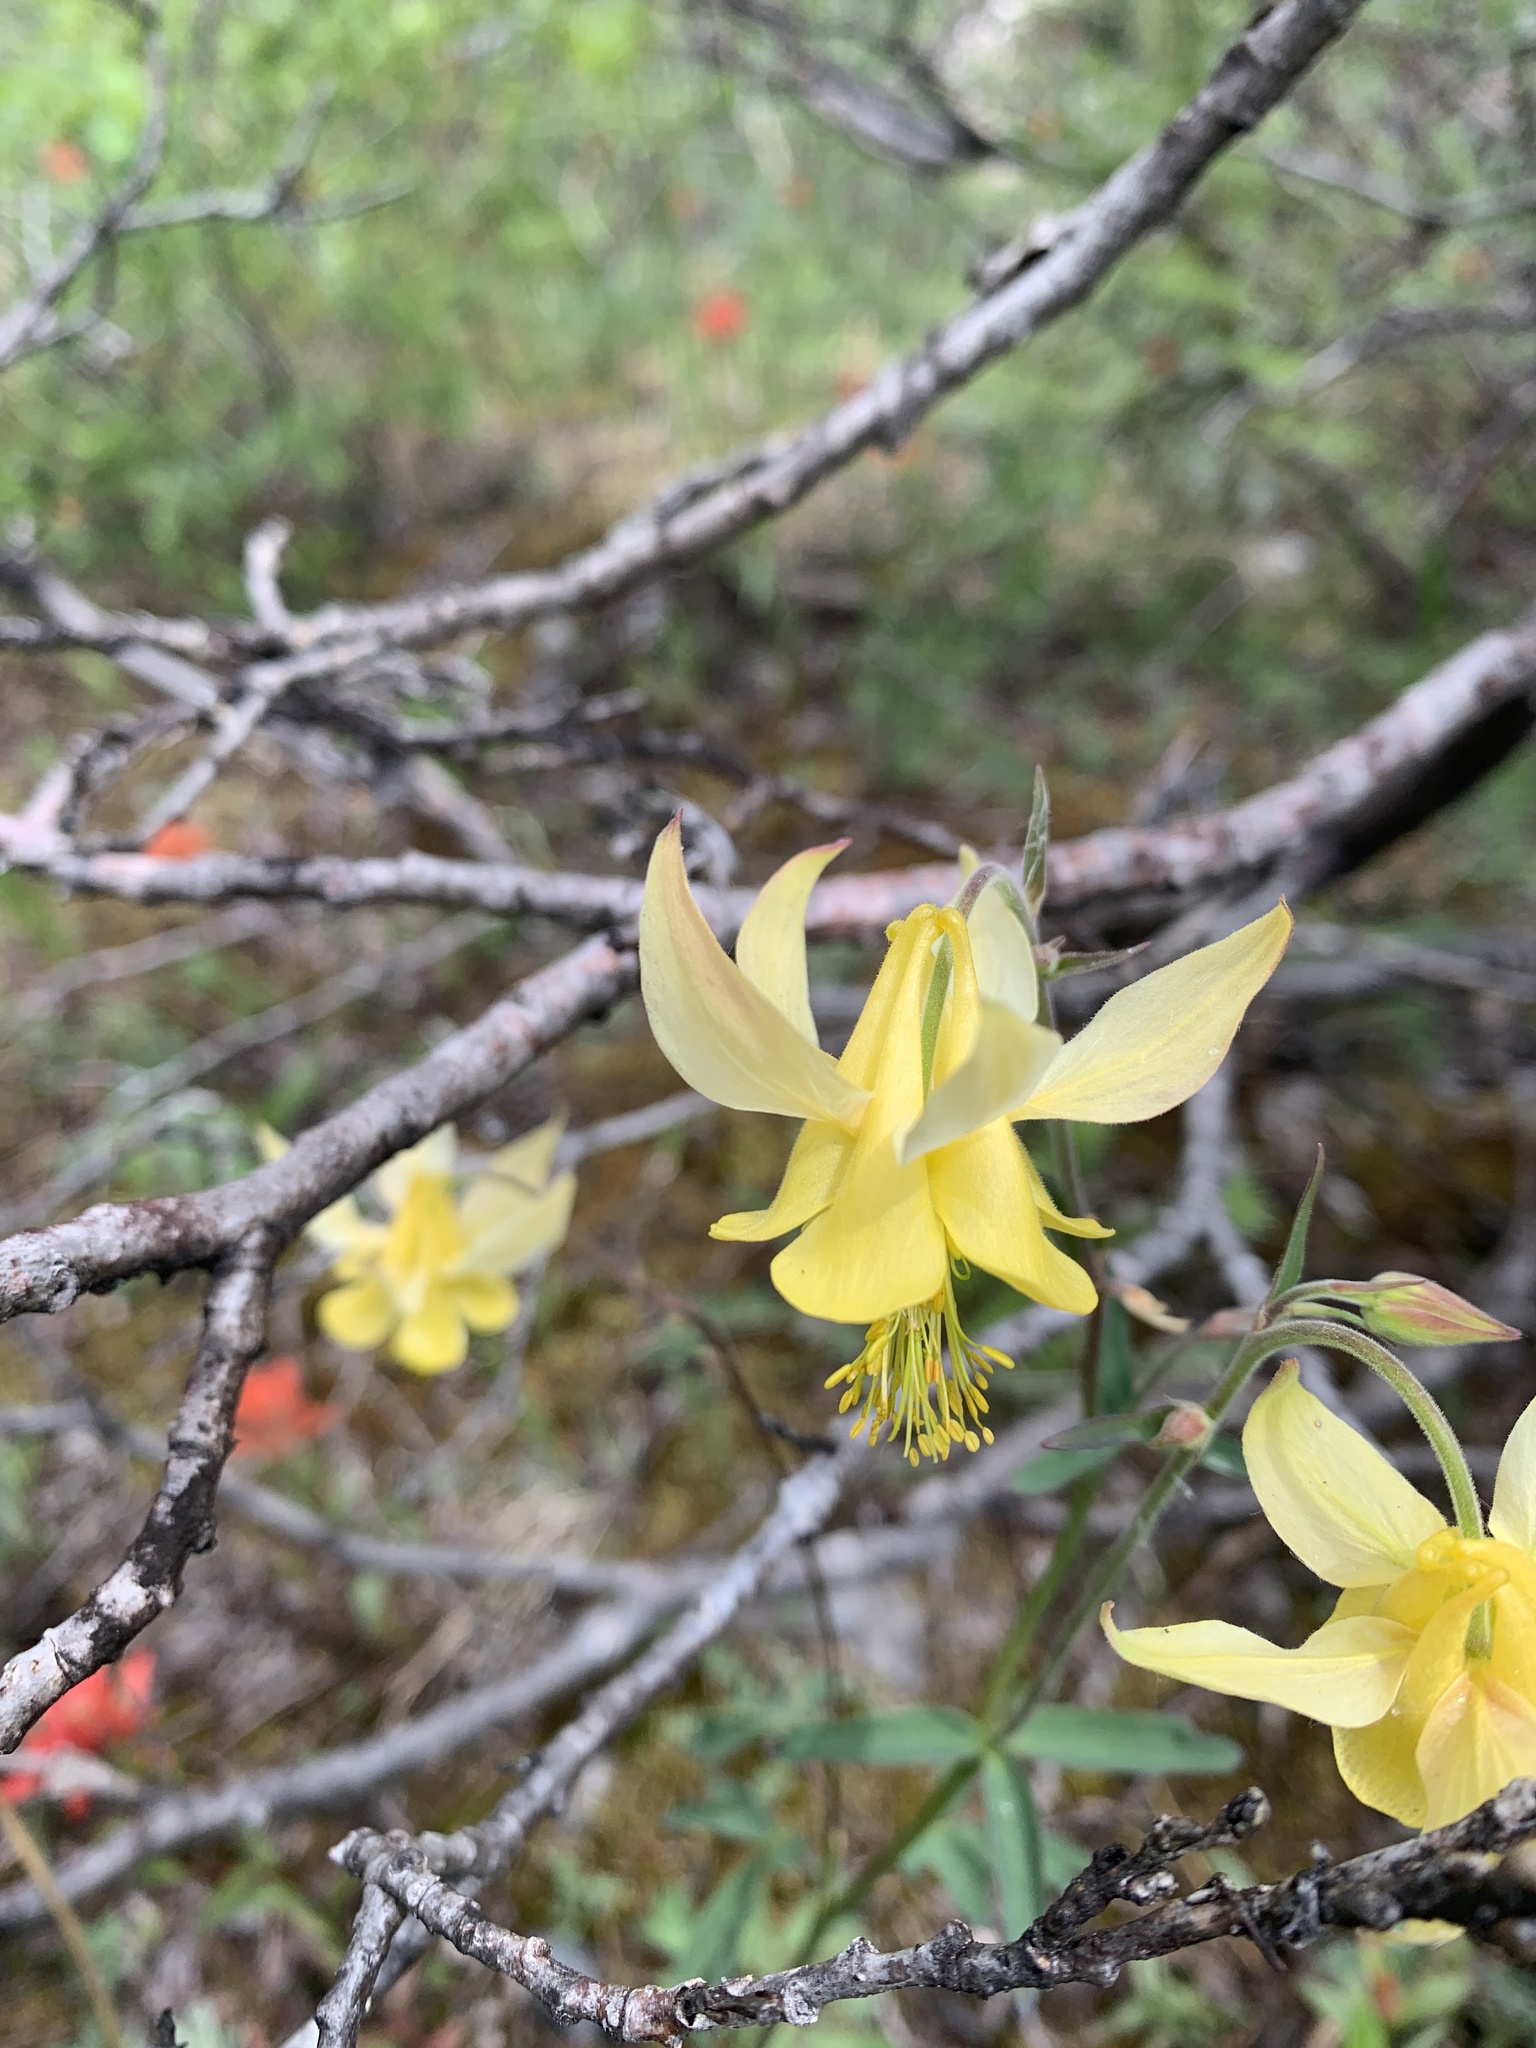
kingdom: Plantae
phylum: Tracheophyta
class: Magnoliopsida
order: Ranunculales
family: Ranunculaceae
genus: Aquilegia
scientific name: Aquilegia flavescens
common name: Yellow columbine
